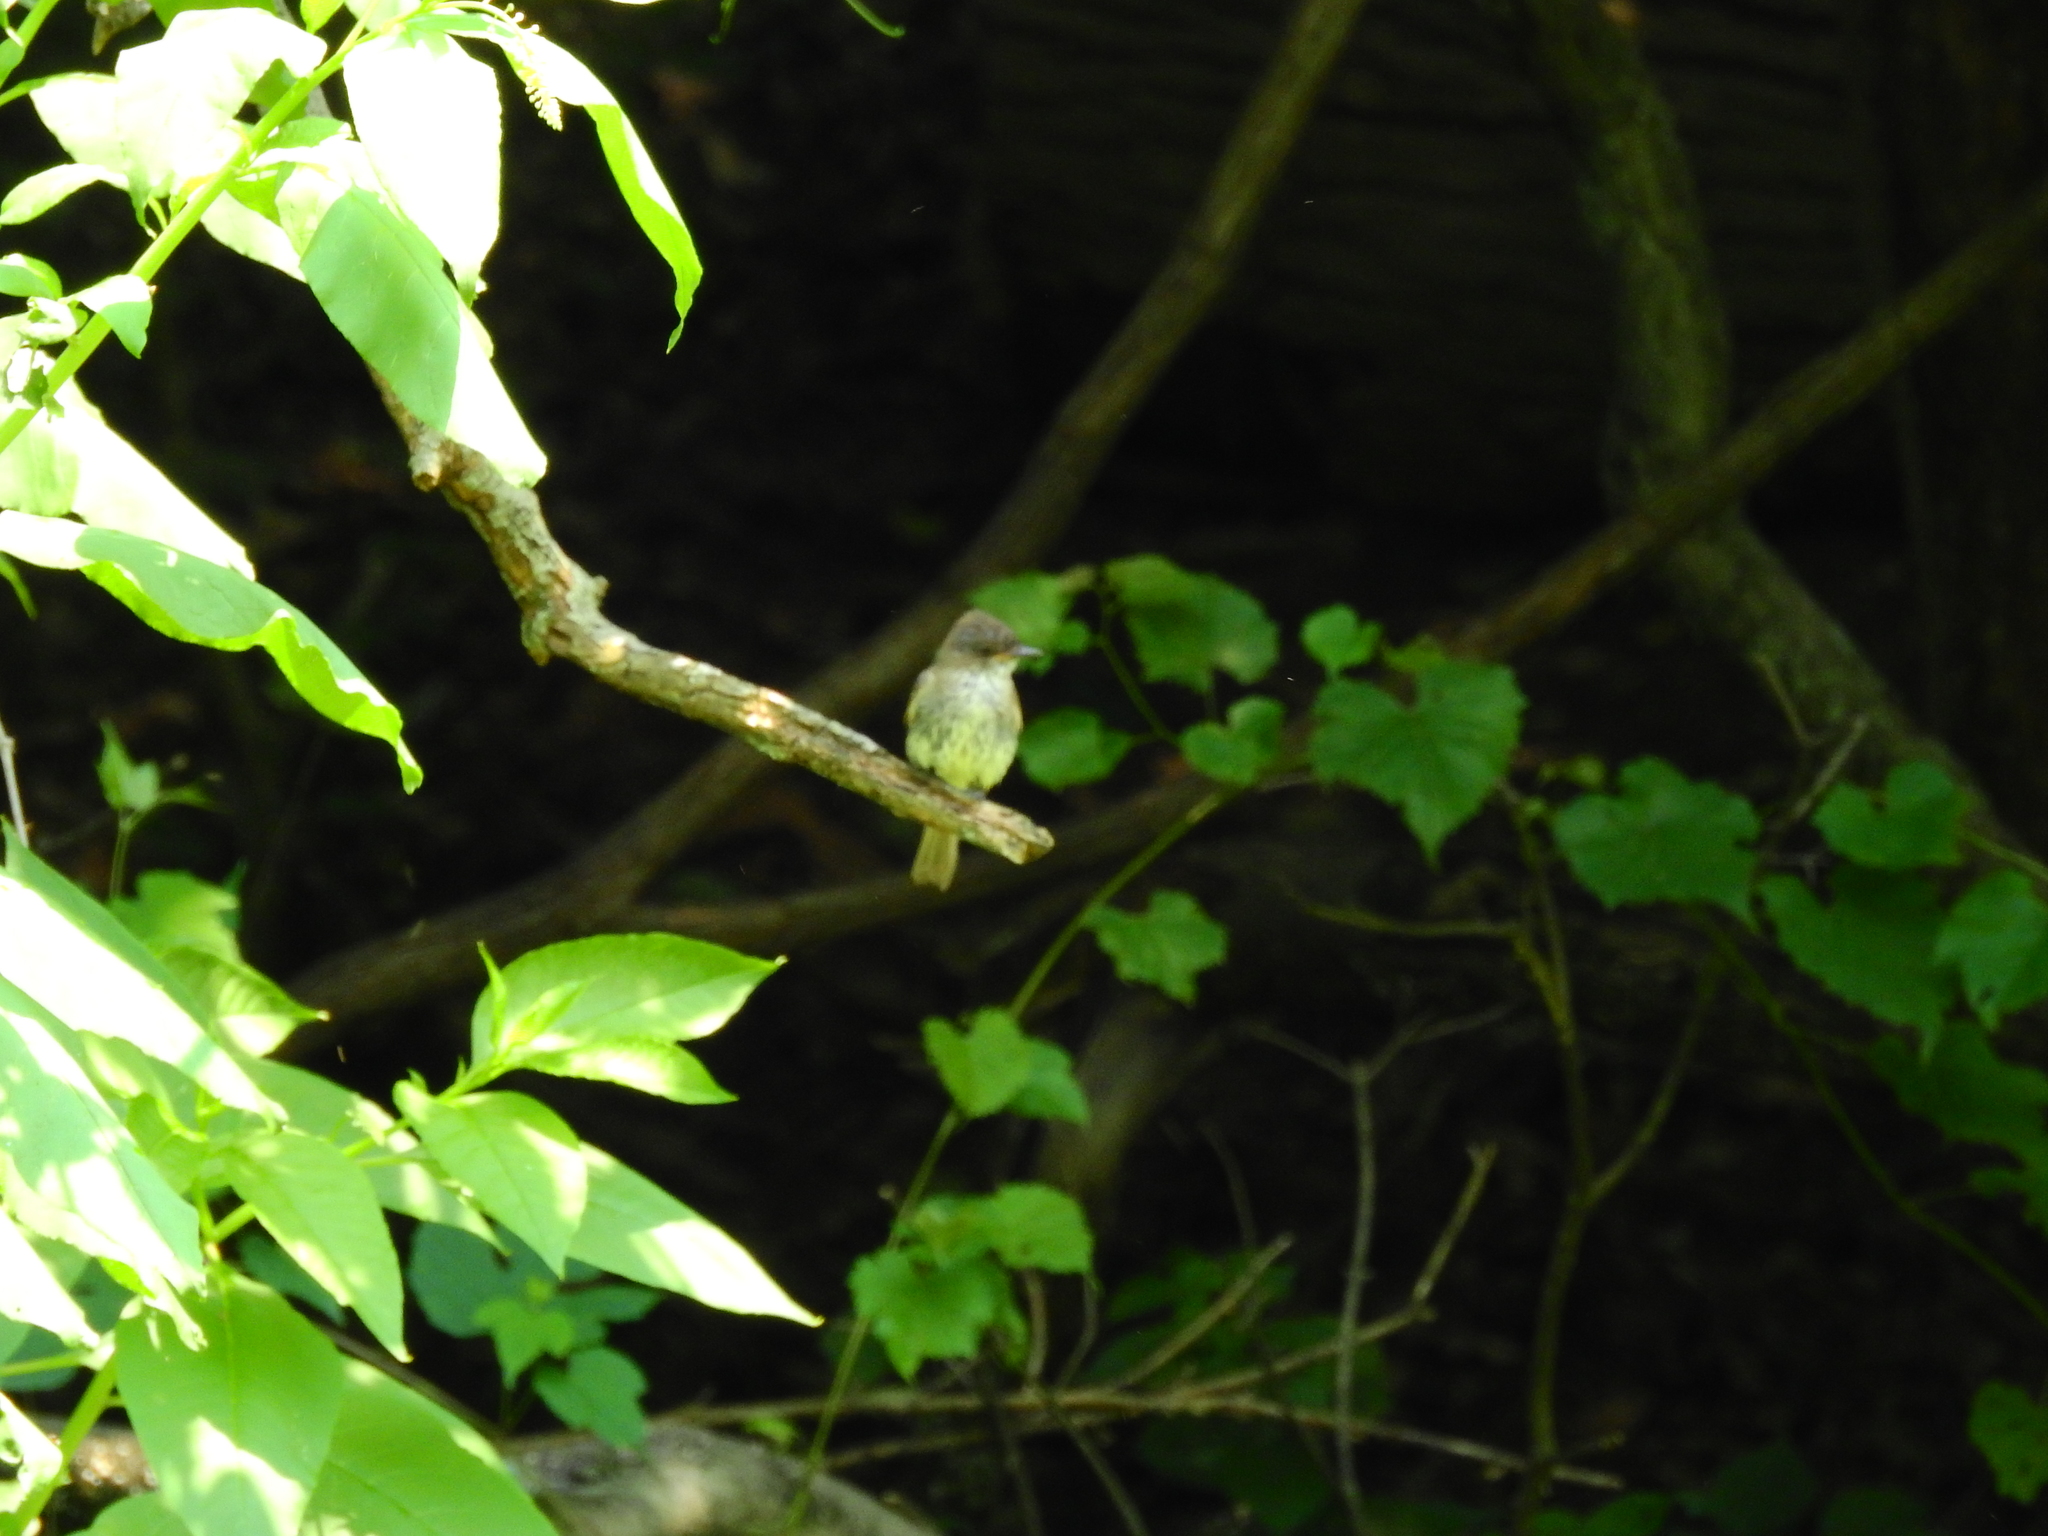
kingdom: Animalia
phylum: Chordata
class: Aves
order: Passeriformes
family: Tyrannidae
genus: Contopus
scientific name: Contopus virens
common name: Eastern wood-pewee
